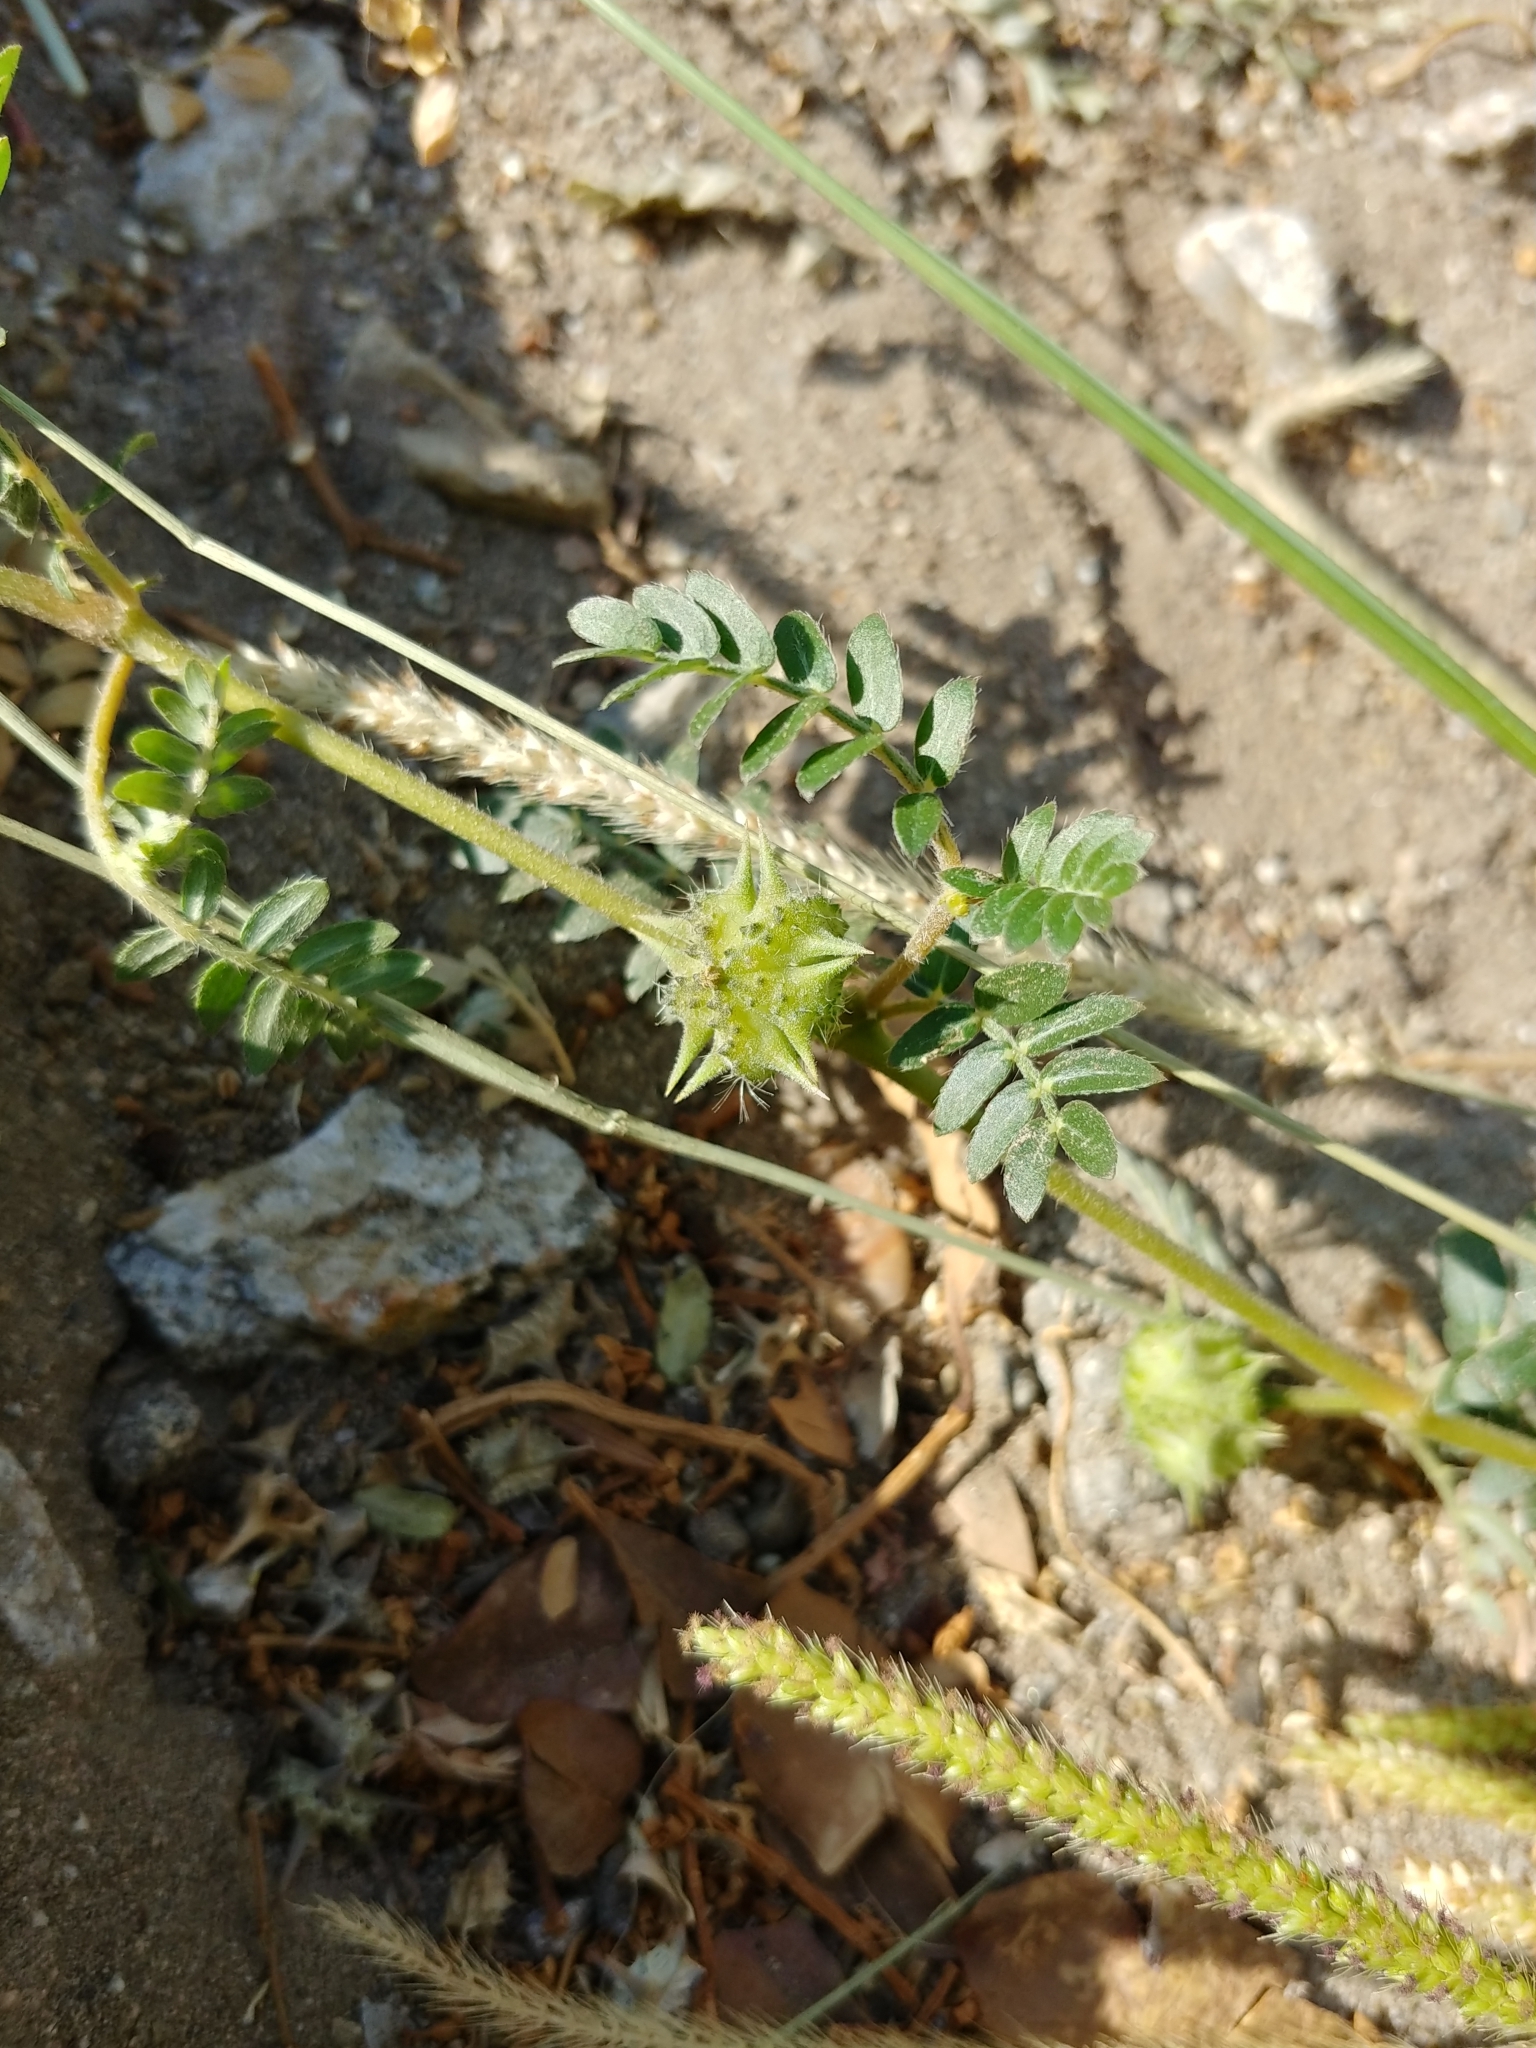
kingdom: Plantae
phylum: Tracheophyta
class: Magnoliopsida
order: Zygophyllales
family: Zygophyllaceae
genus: Tribulus
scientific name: Tribulus terrestris
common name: Puncturevine
